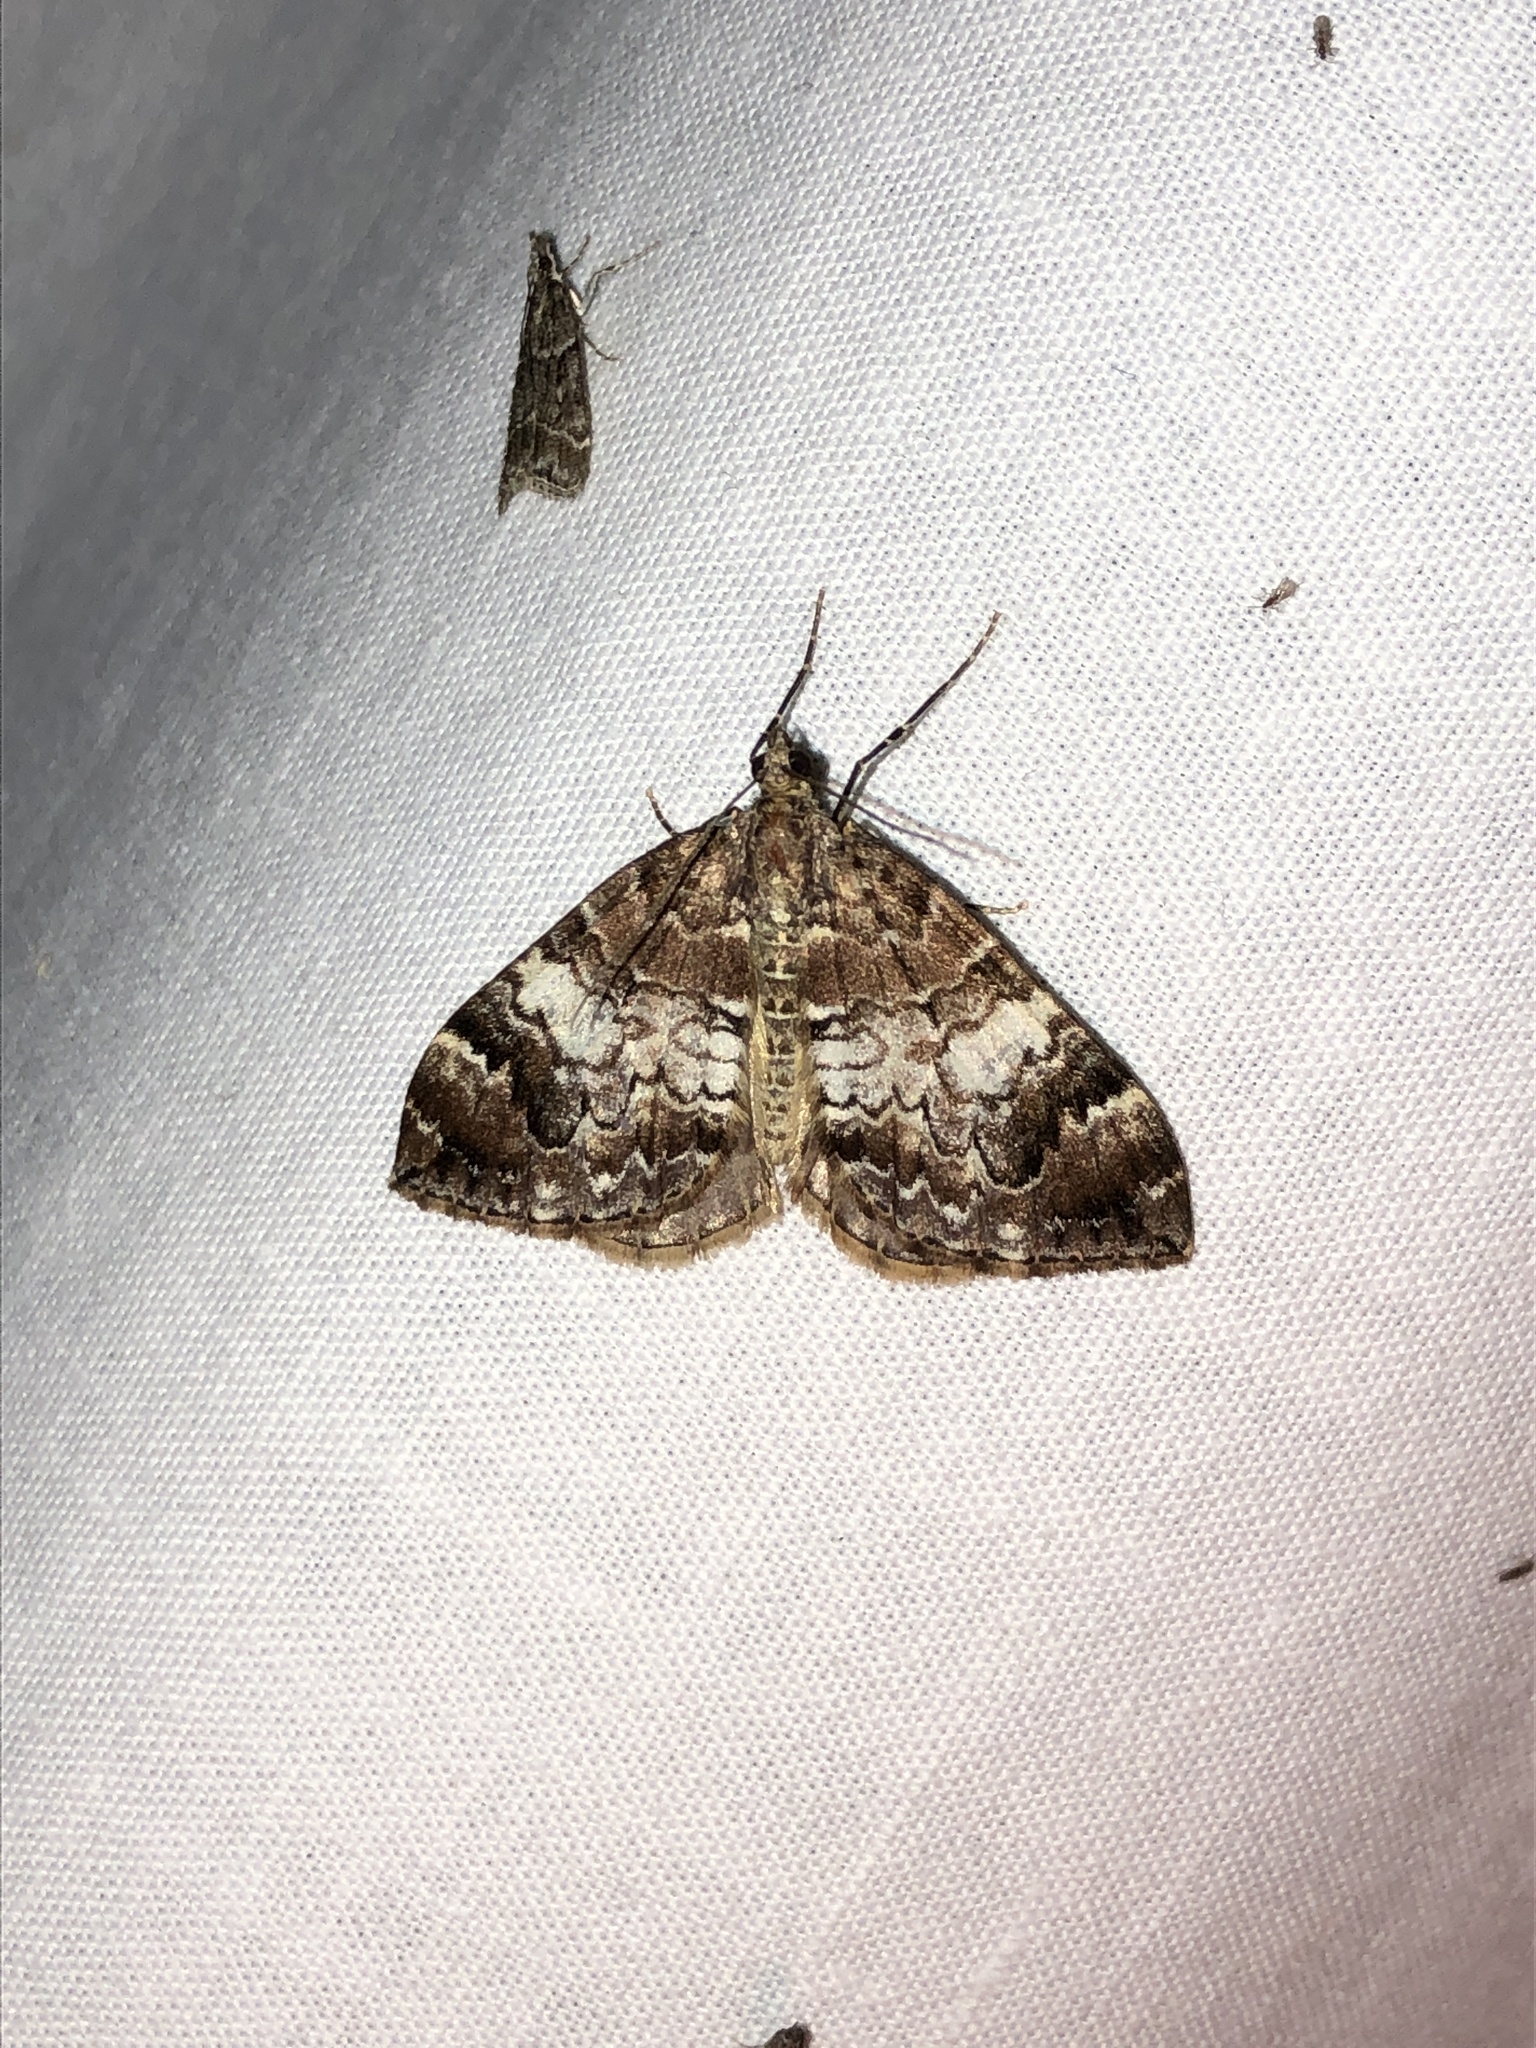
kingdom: Animalia
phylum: Arthropoda
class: Insecta
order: Lepidoptera
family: Geometridae
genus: Dysstroma
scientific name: Dysstroma sobria
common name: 10-spotted rhododendron moth
